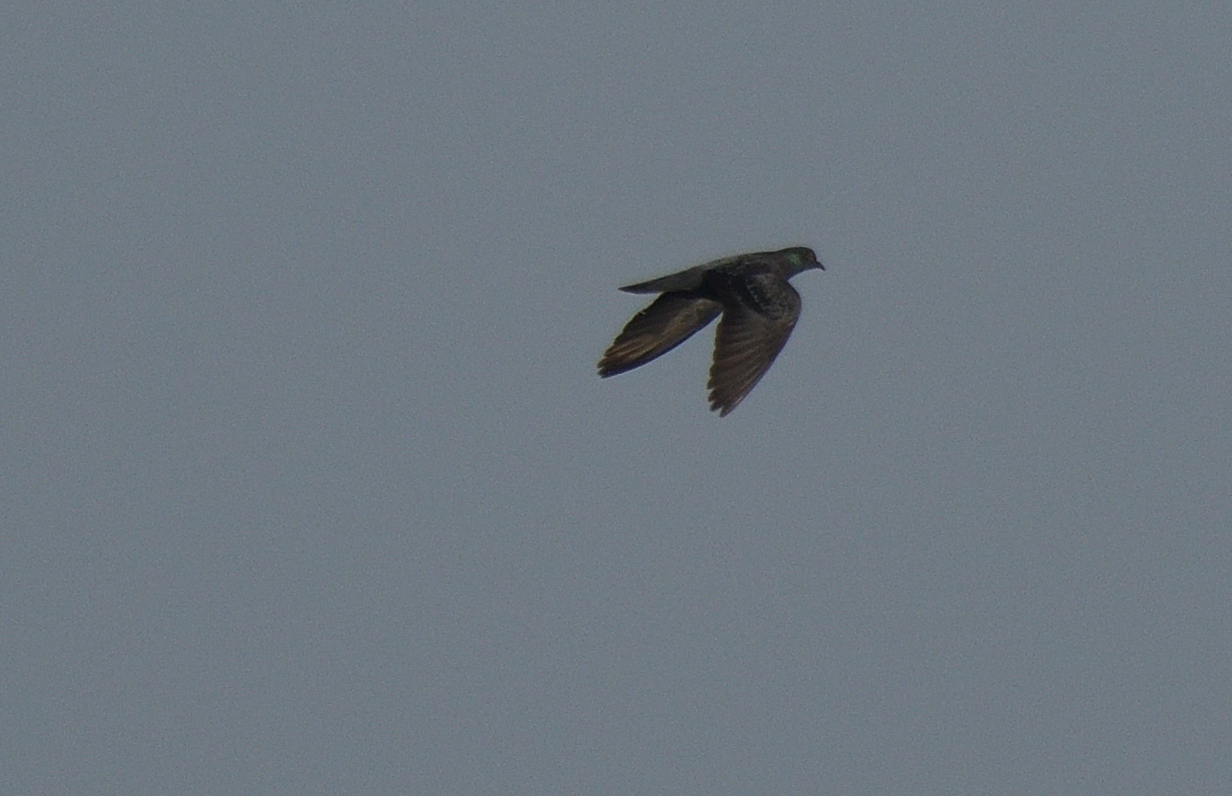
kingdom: Animalia
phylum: Chordata
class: Aves
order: Columbiformes
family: Columbidae
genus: Columba
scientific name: Columba livia
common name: Rock pigeon
